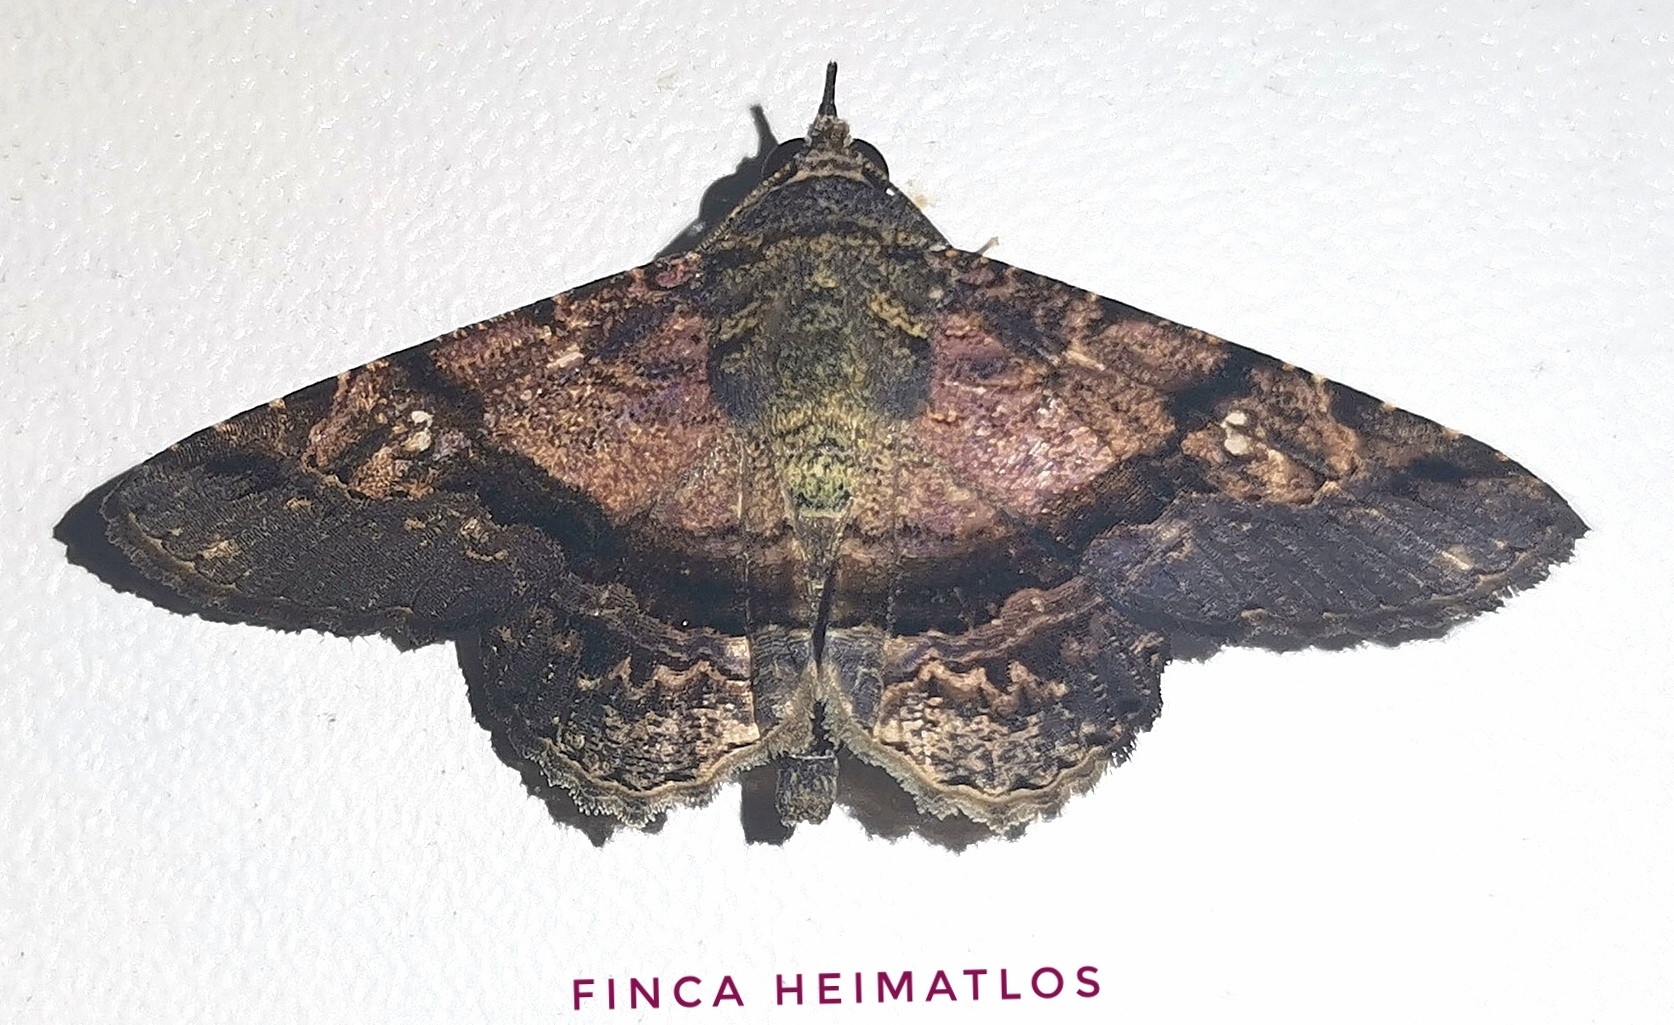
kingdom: Animalia
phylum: Arthropoda
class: Insecta
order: Lepidoptera
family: Erebidae
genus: Helia
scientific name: Helia vitriluna
